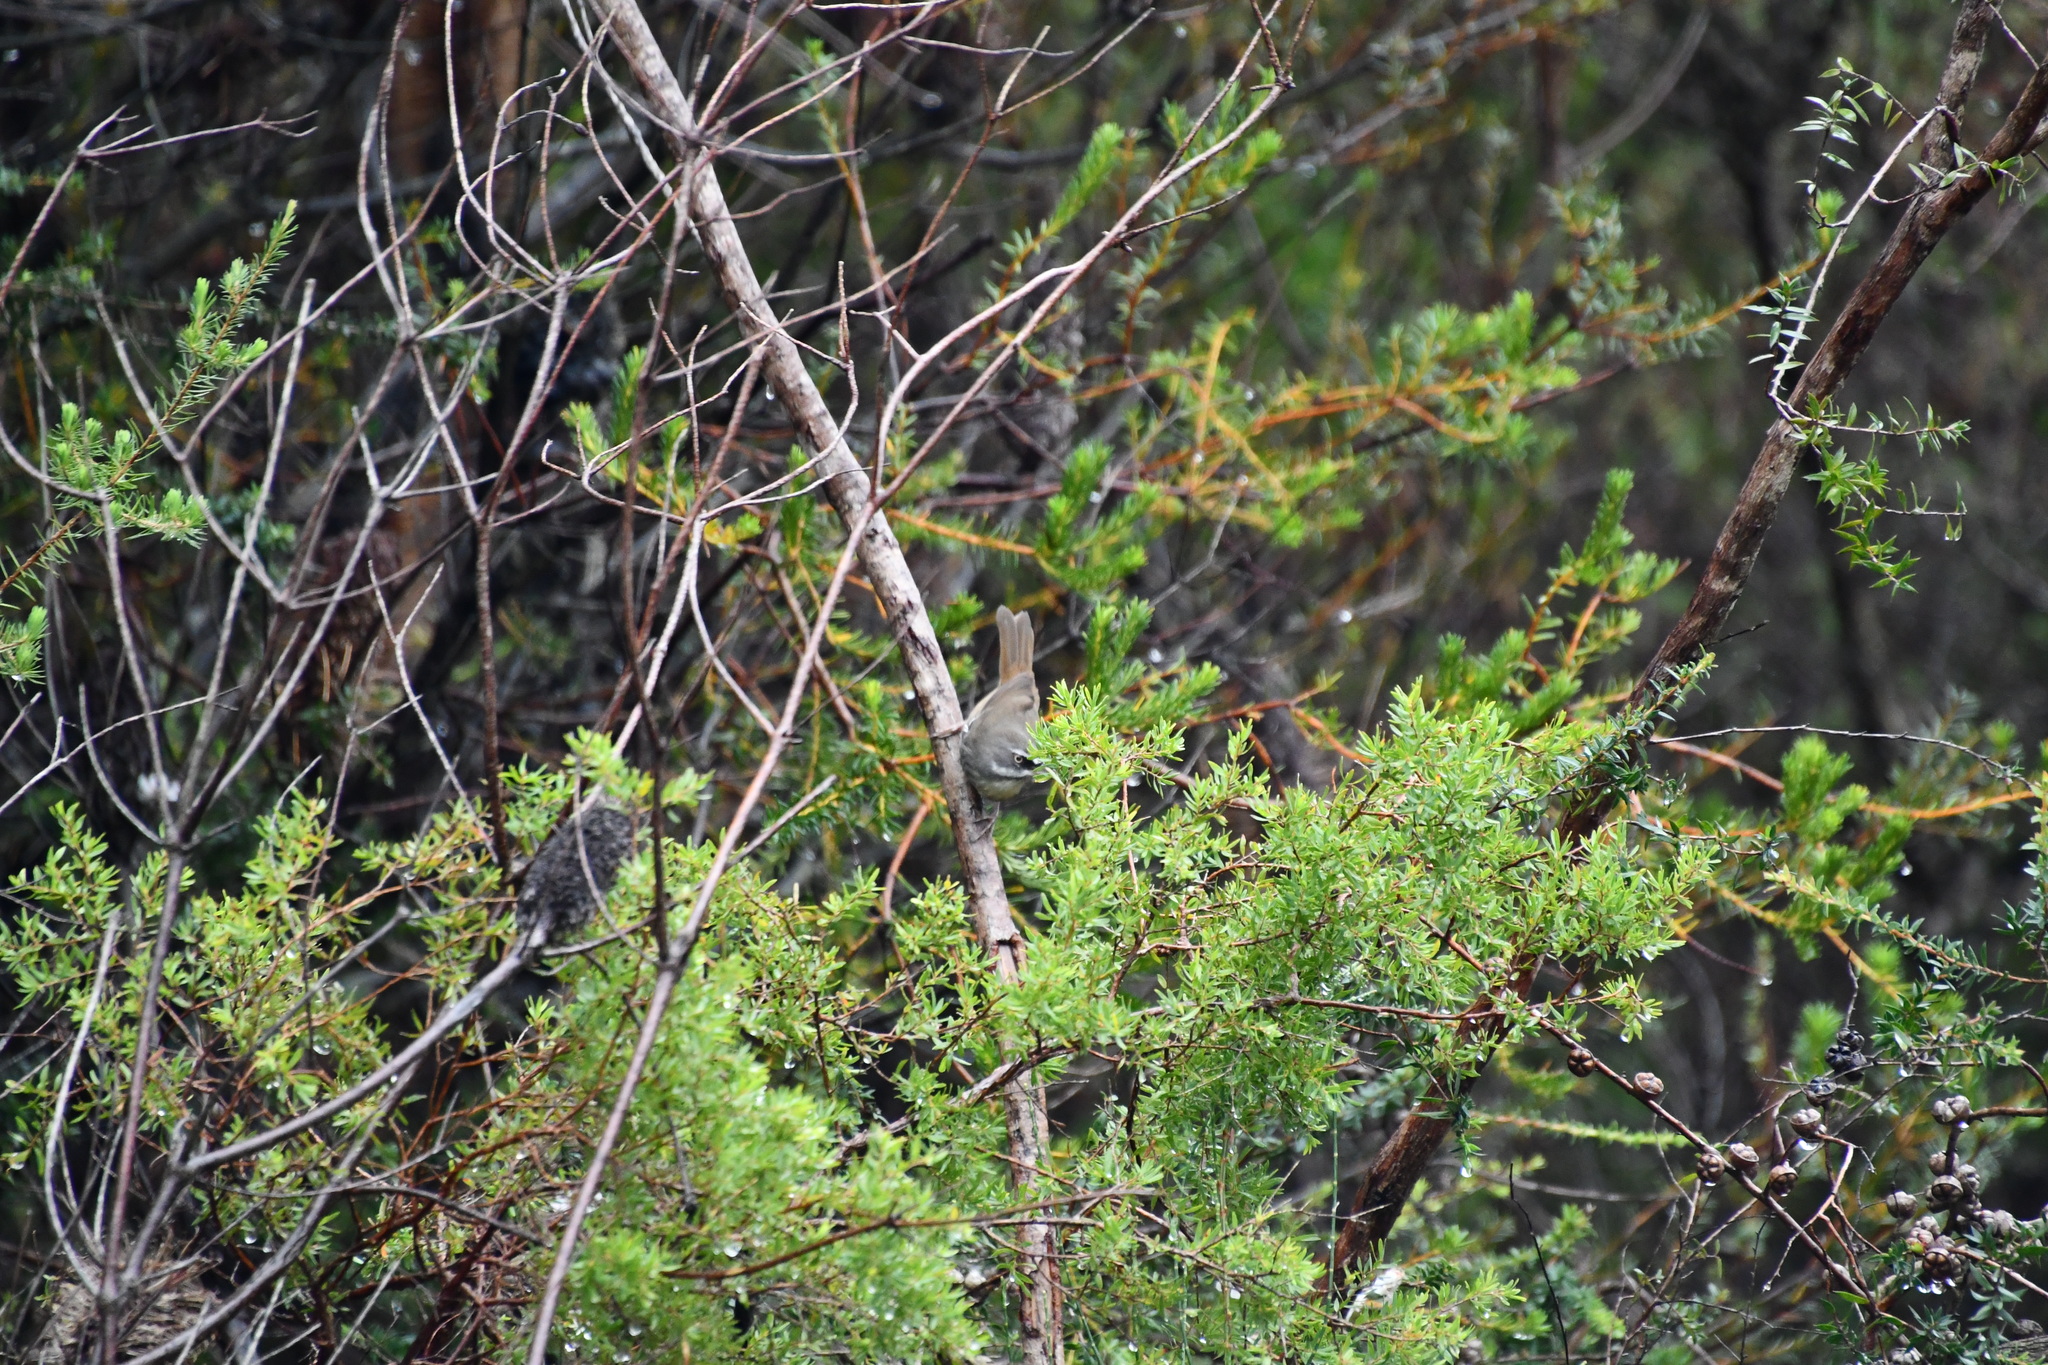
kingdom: Animalia
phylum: Chordata
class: Aves
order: Passeriformes
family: Acanthizidae
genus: Sericornis
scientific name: Sericornis frontalis
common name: White-browed scrubwren
